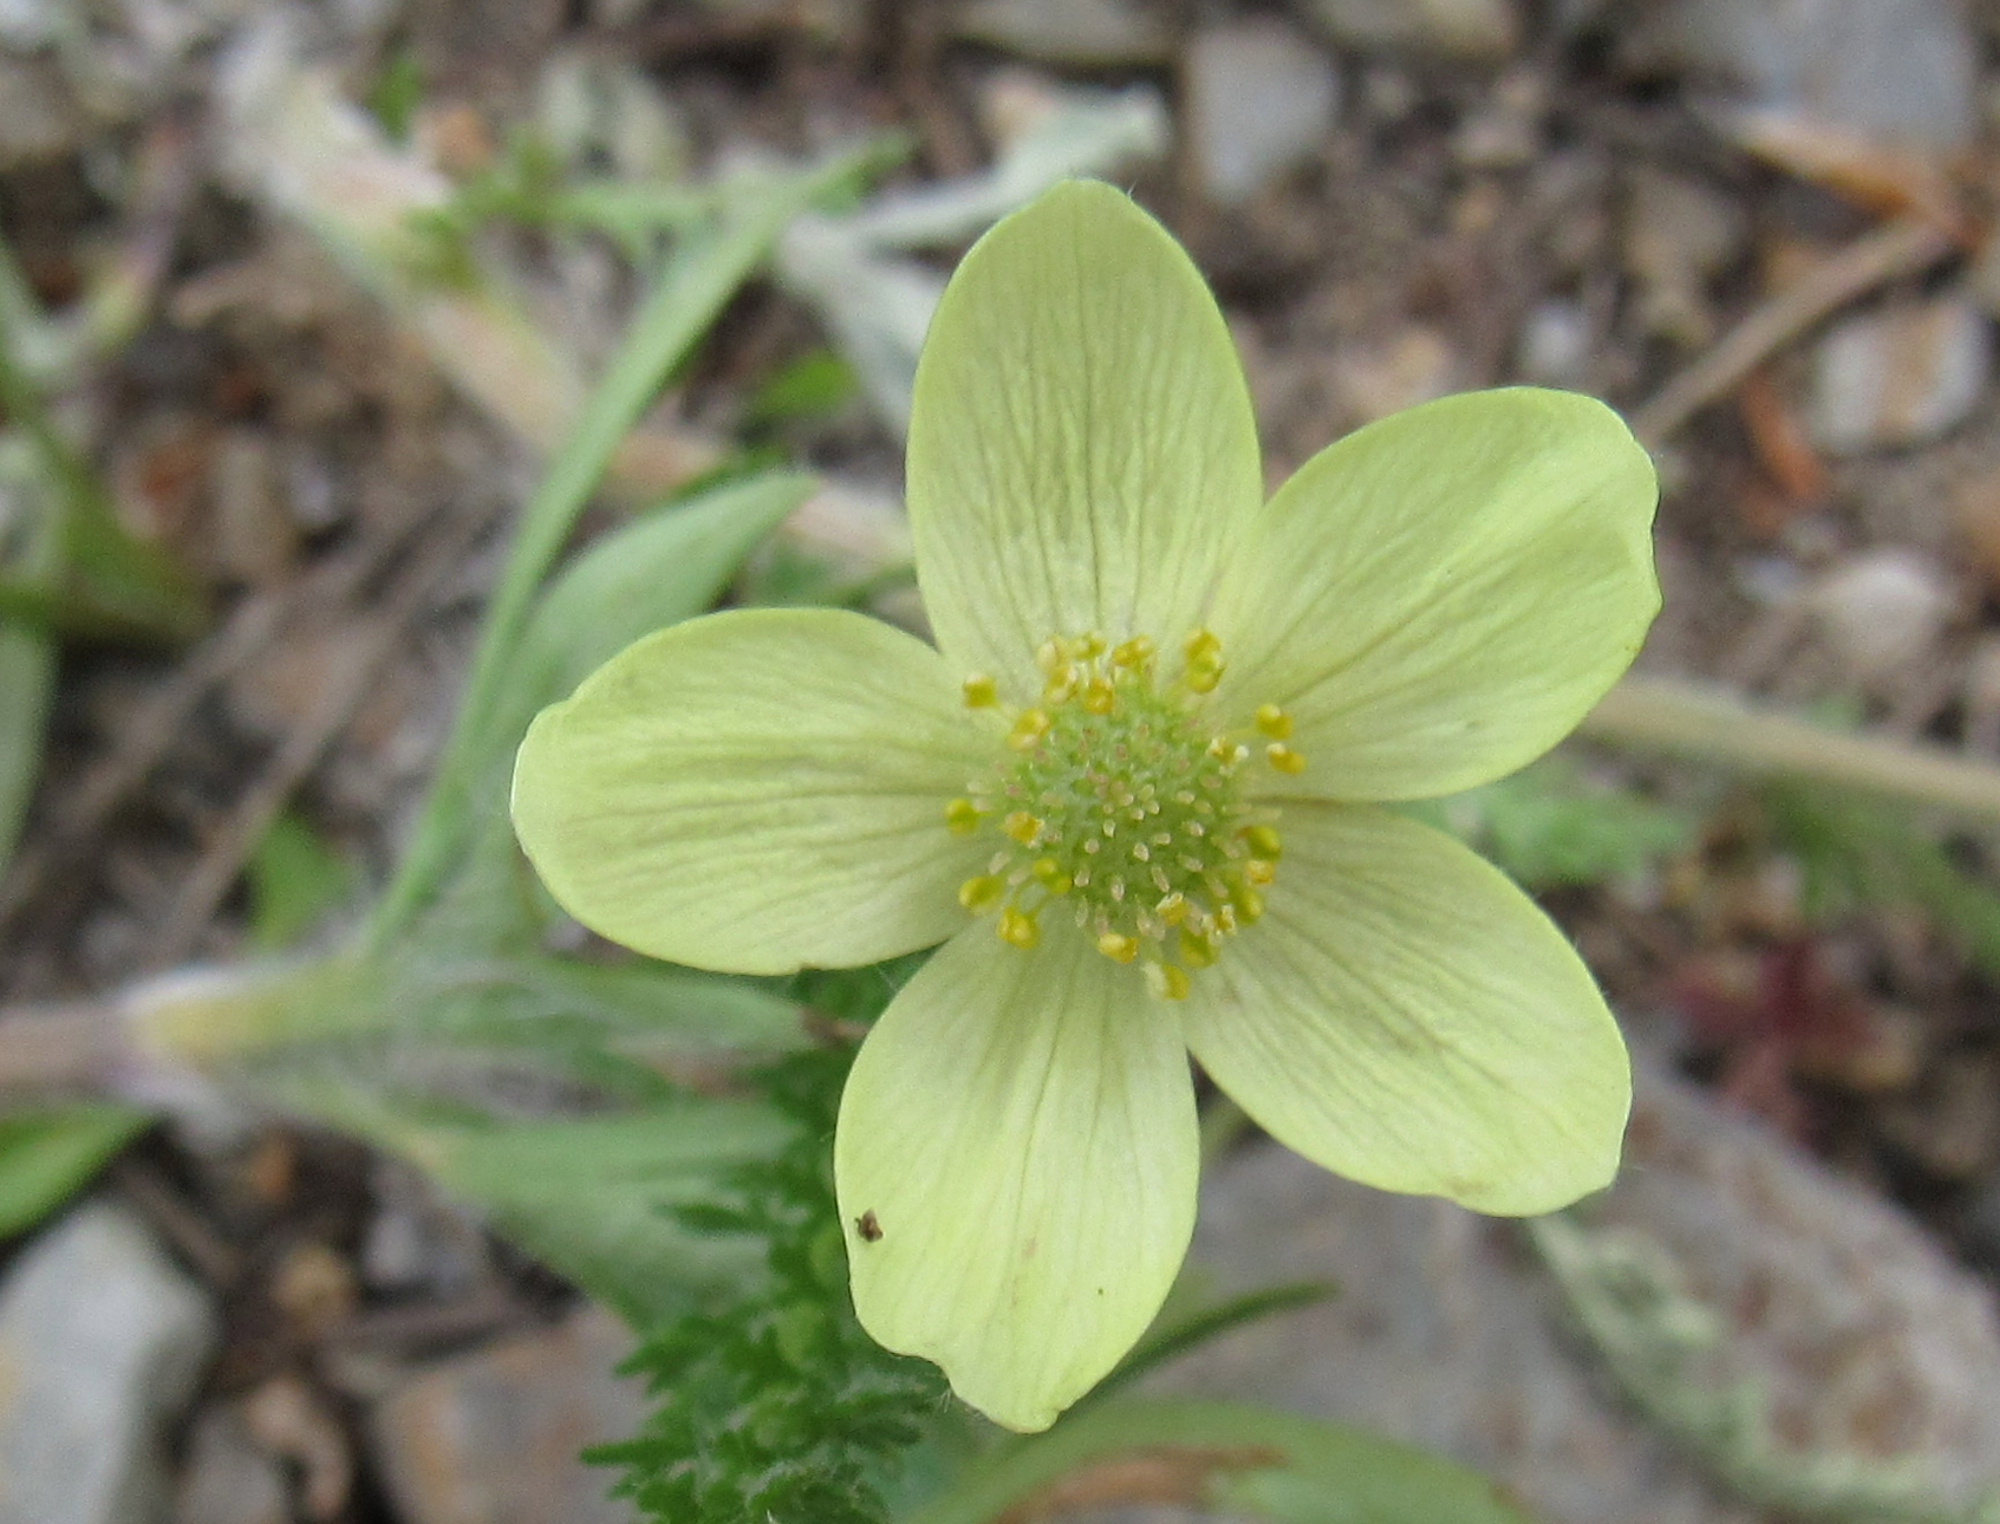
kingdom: Plantae
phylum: Tracheophyta
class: Magnoliopsida
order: Ranunculales
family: Ranunculaceae
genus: Anemone
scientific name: Anemone multifida
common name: Bird's-foot anemone
